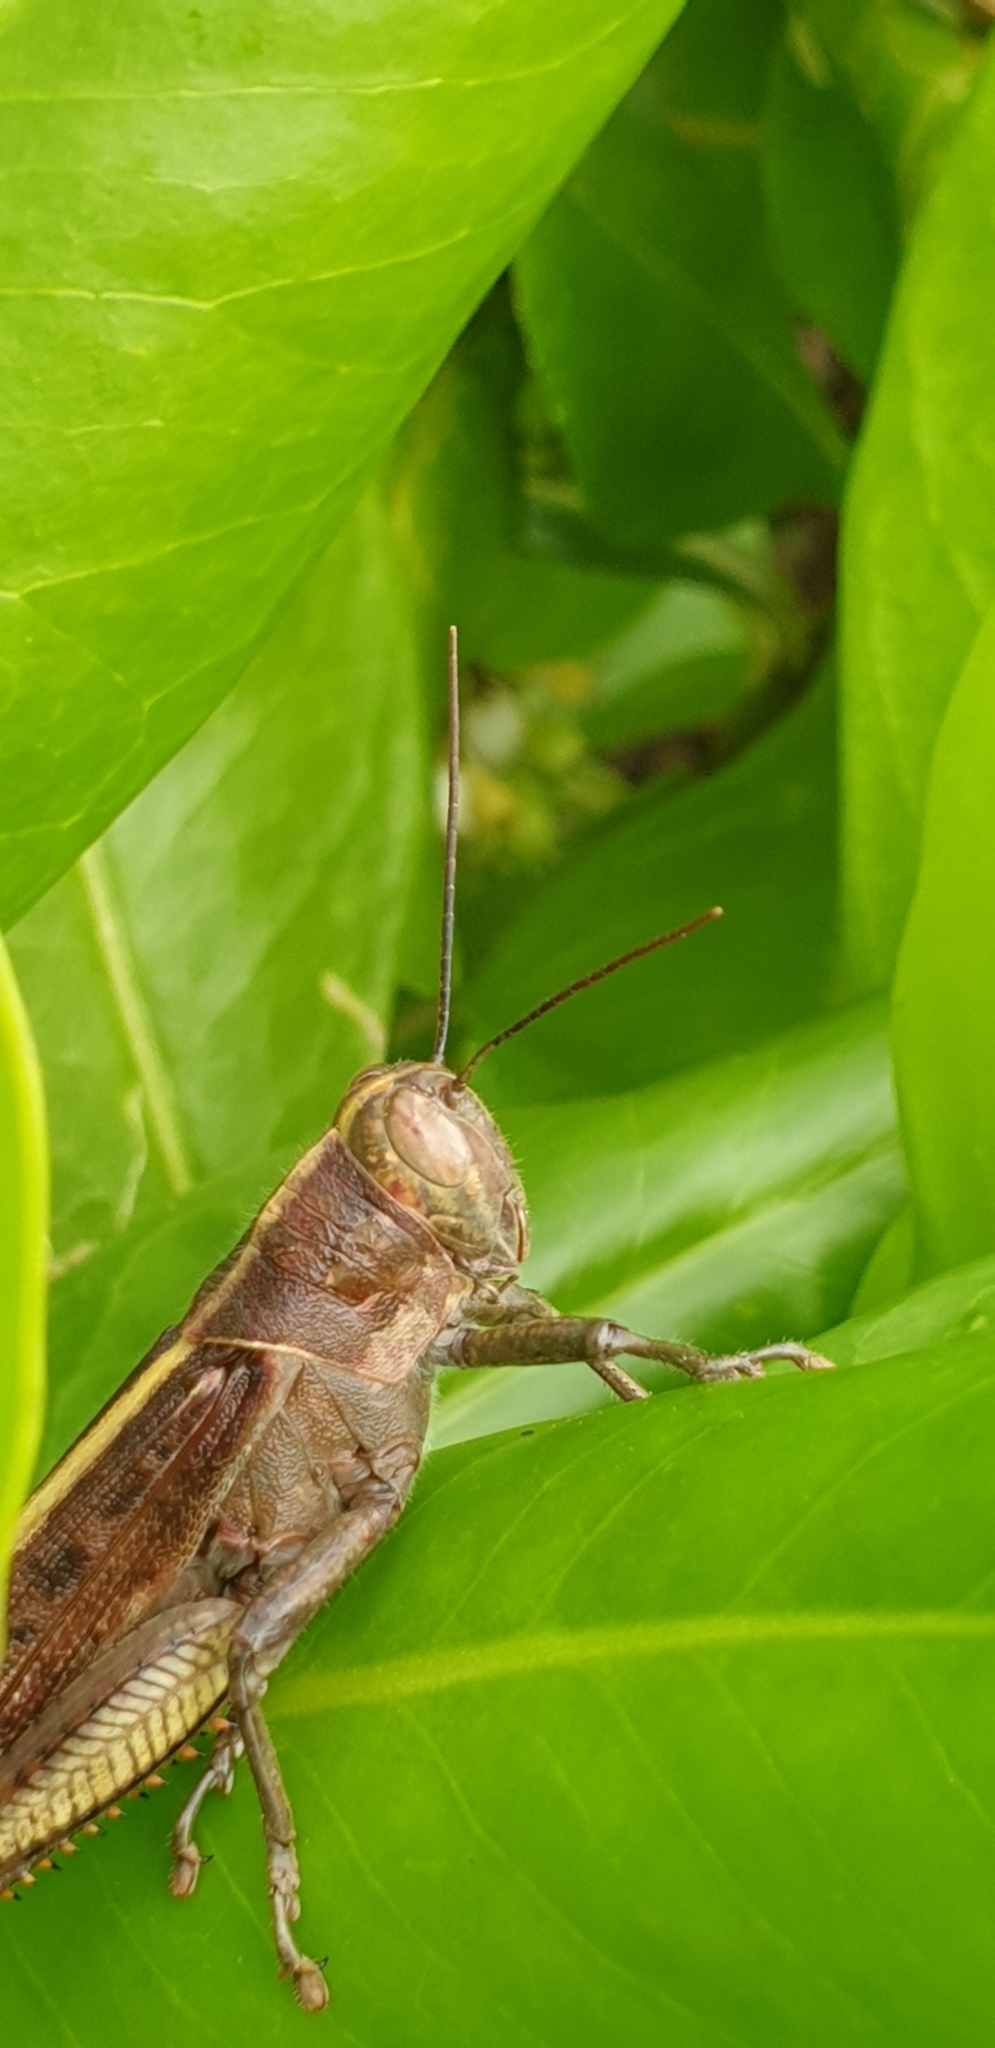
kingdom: Animalia
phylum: Arthropoda
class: Insecta
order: Orthoptera
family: Acrididae
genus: Valanga
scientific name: Valanga irregularis
